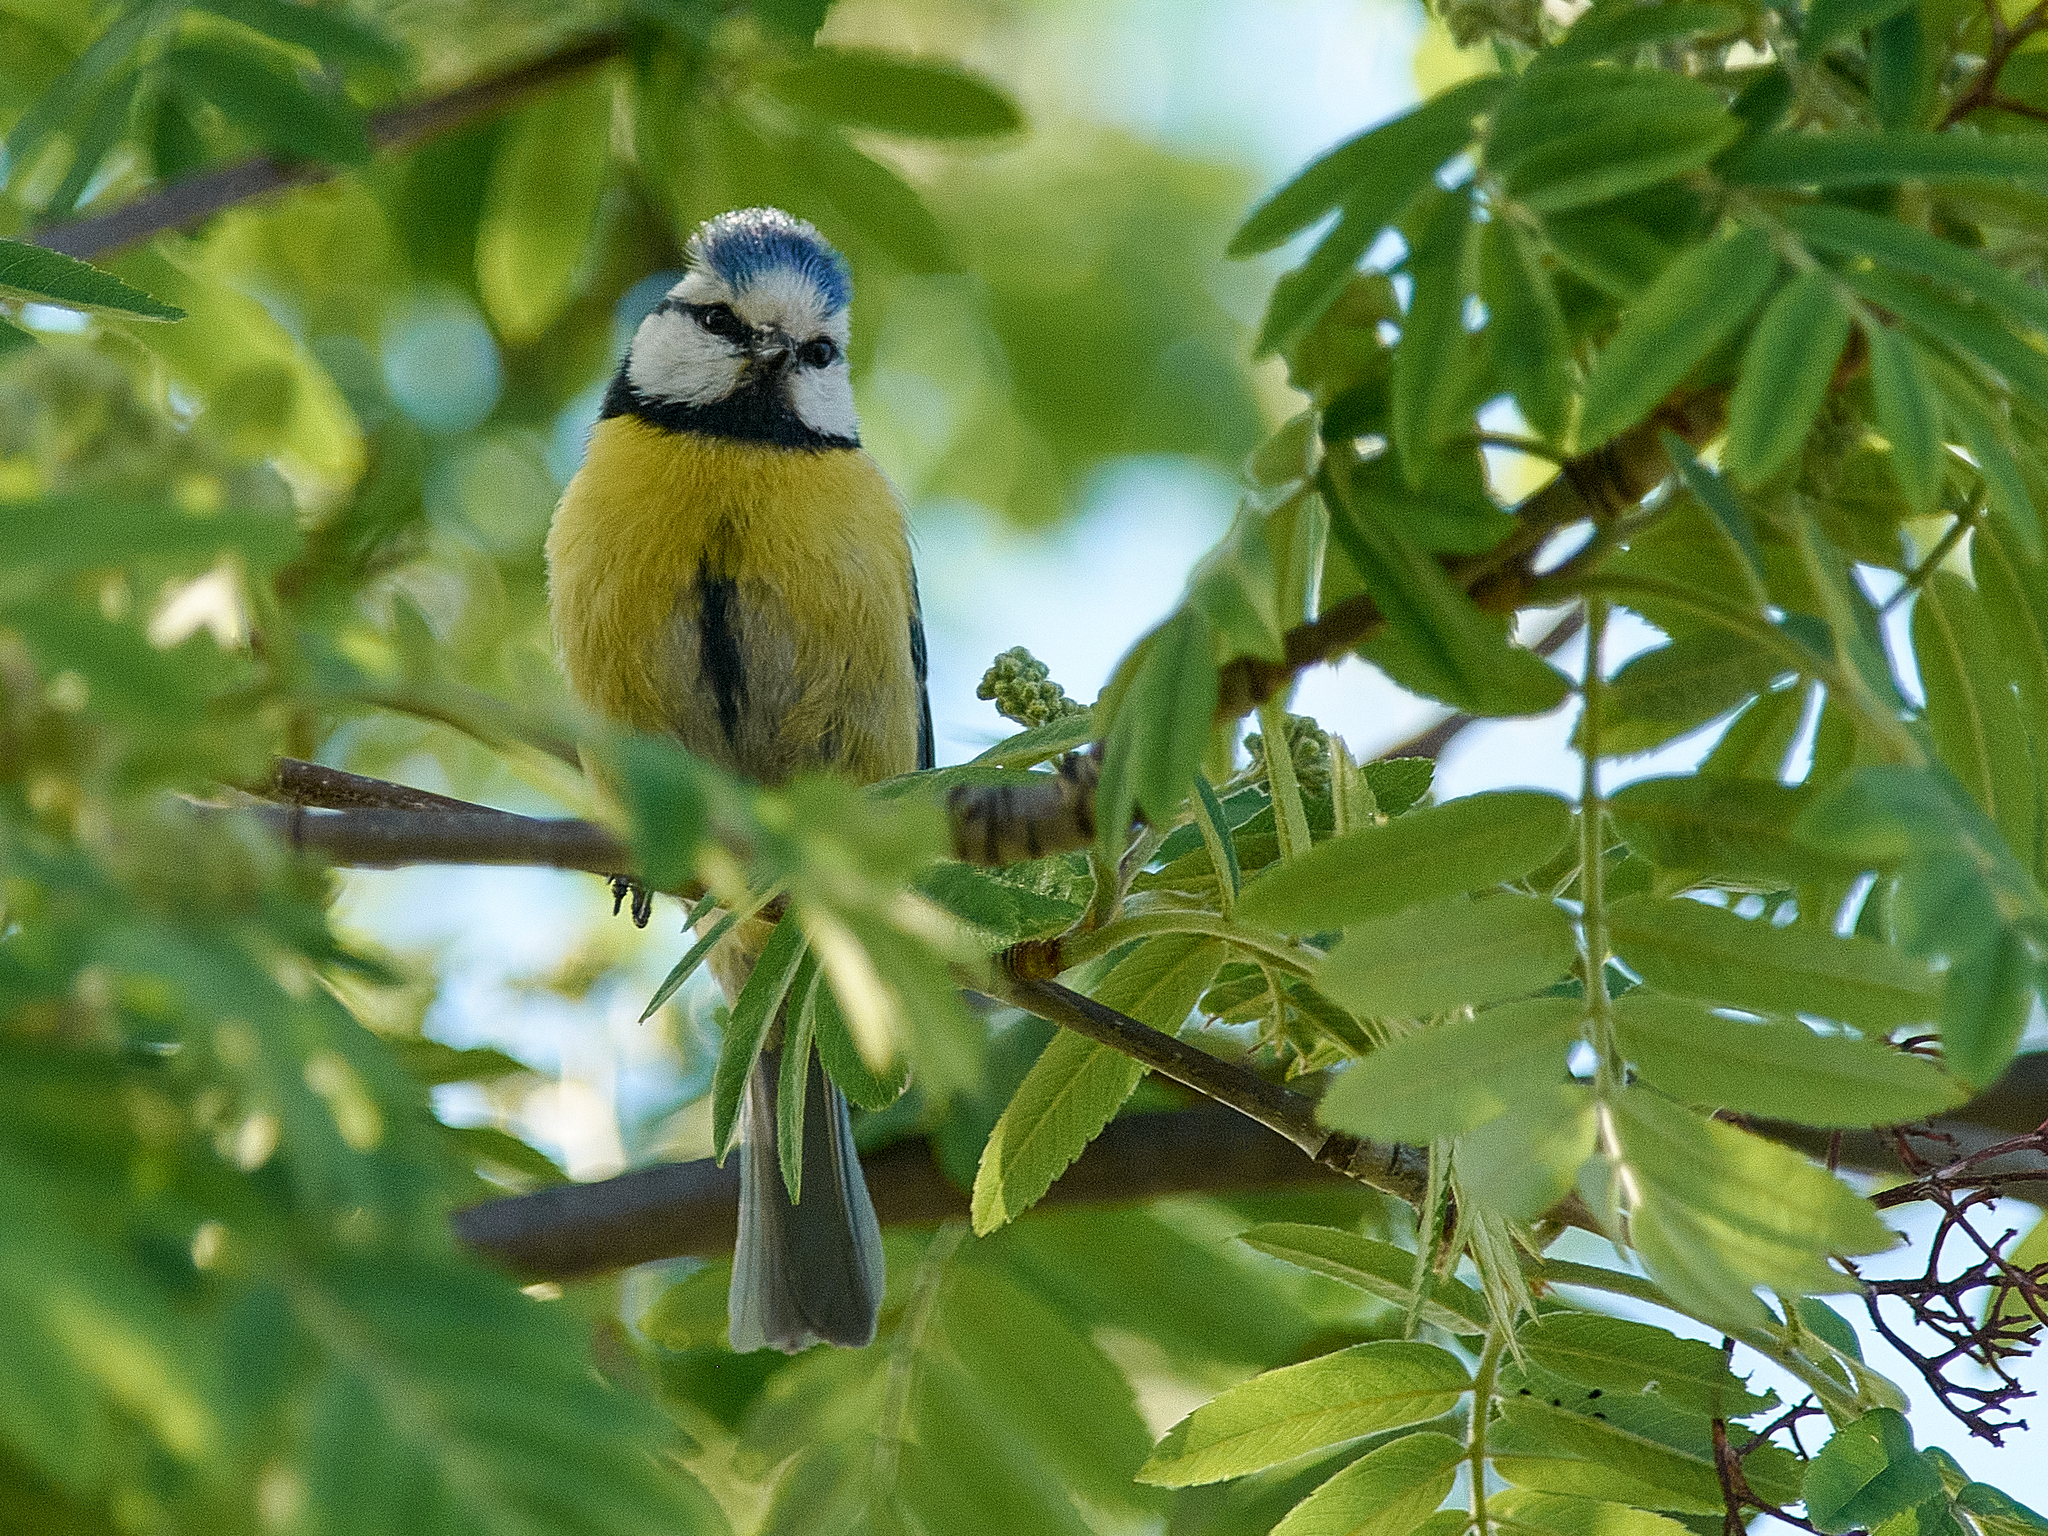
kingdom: Animalia
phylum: Chordata
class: Aves
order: Passeriformes
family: Paridae
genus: Cyanistes
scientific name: Cyanistes caeruleus
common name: Eurasian blue tit
